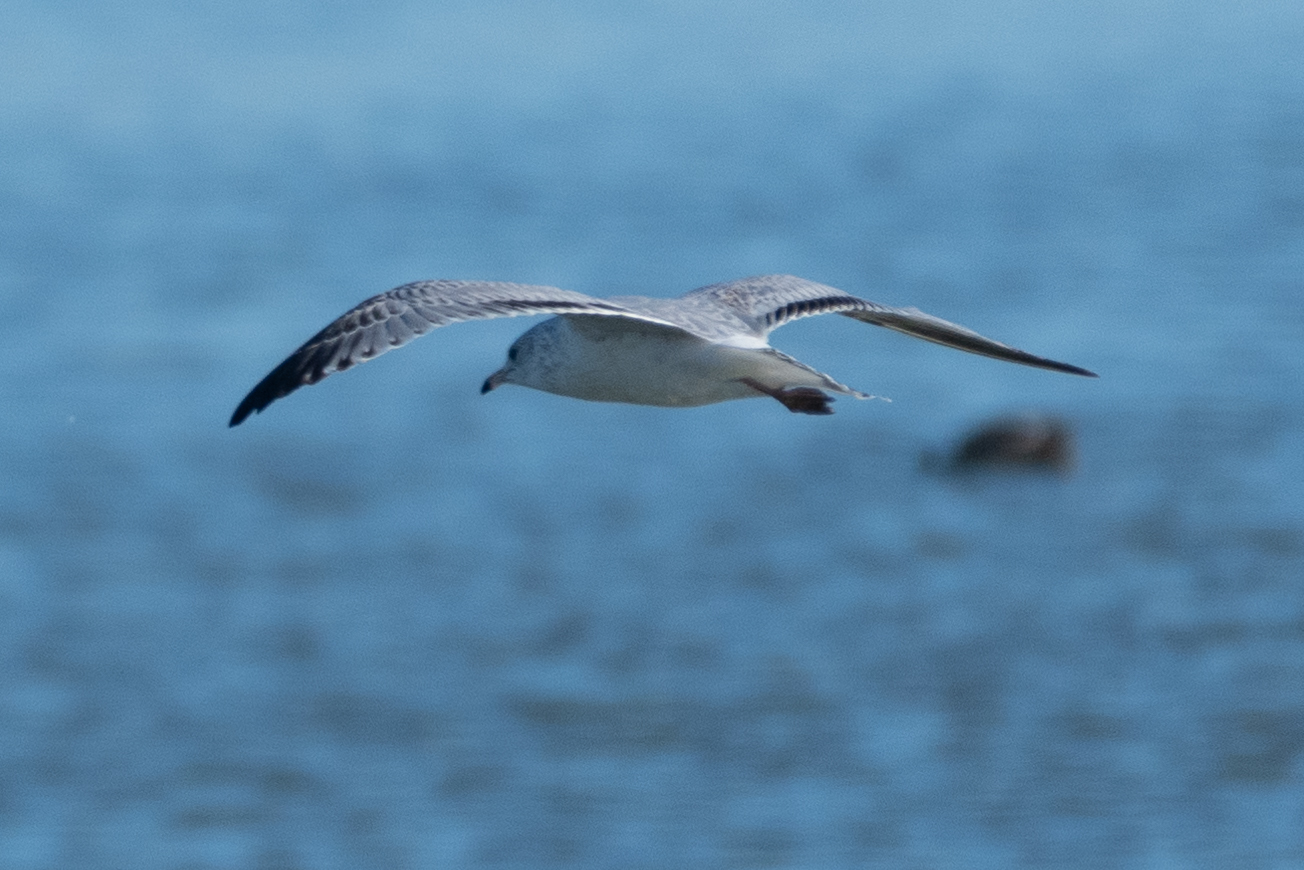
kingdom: Animalia
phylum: Chordata
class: Aves
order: Charadriiformes
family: Laridae
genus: Larus
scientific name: Larus delawarensis
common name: Ring-billed gull
